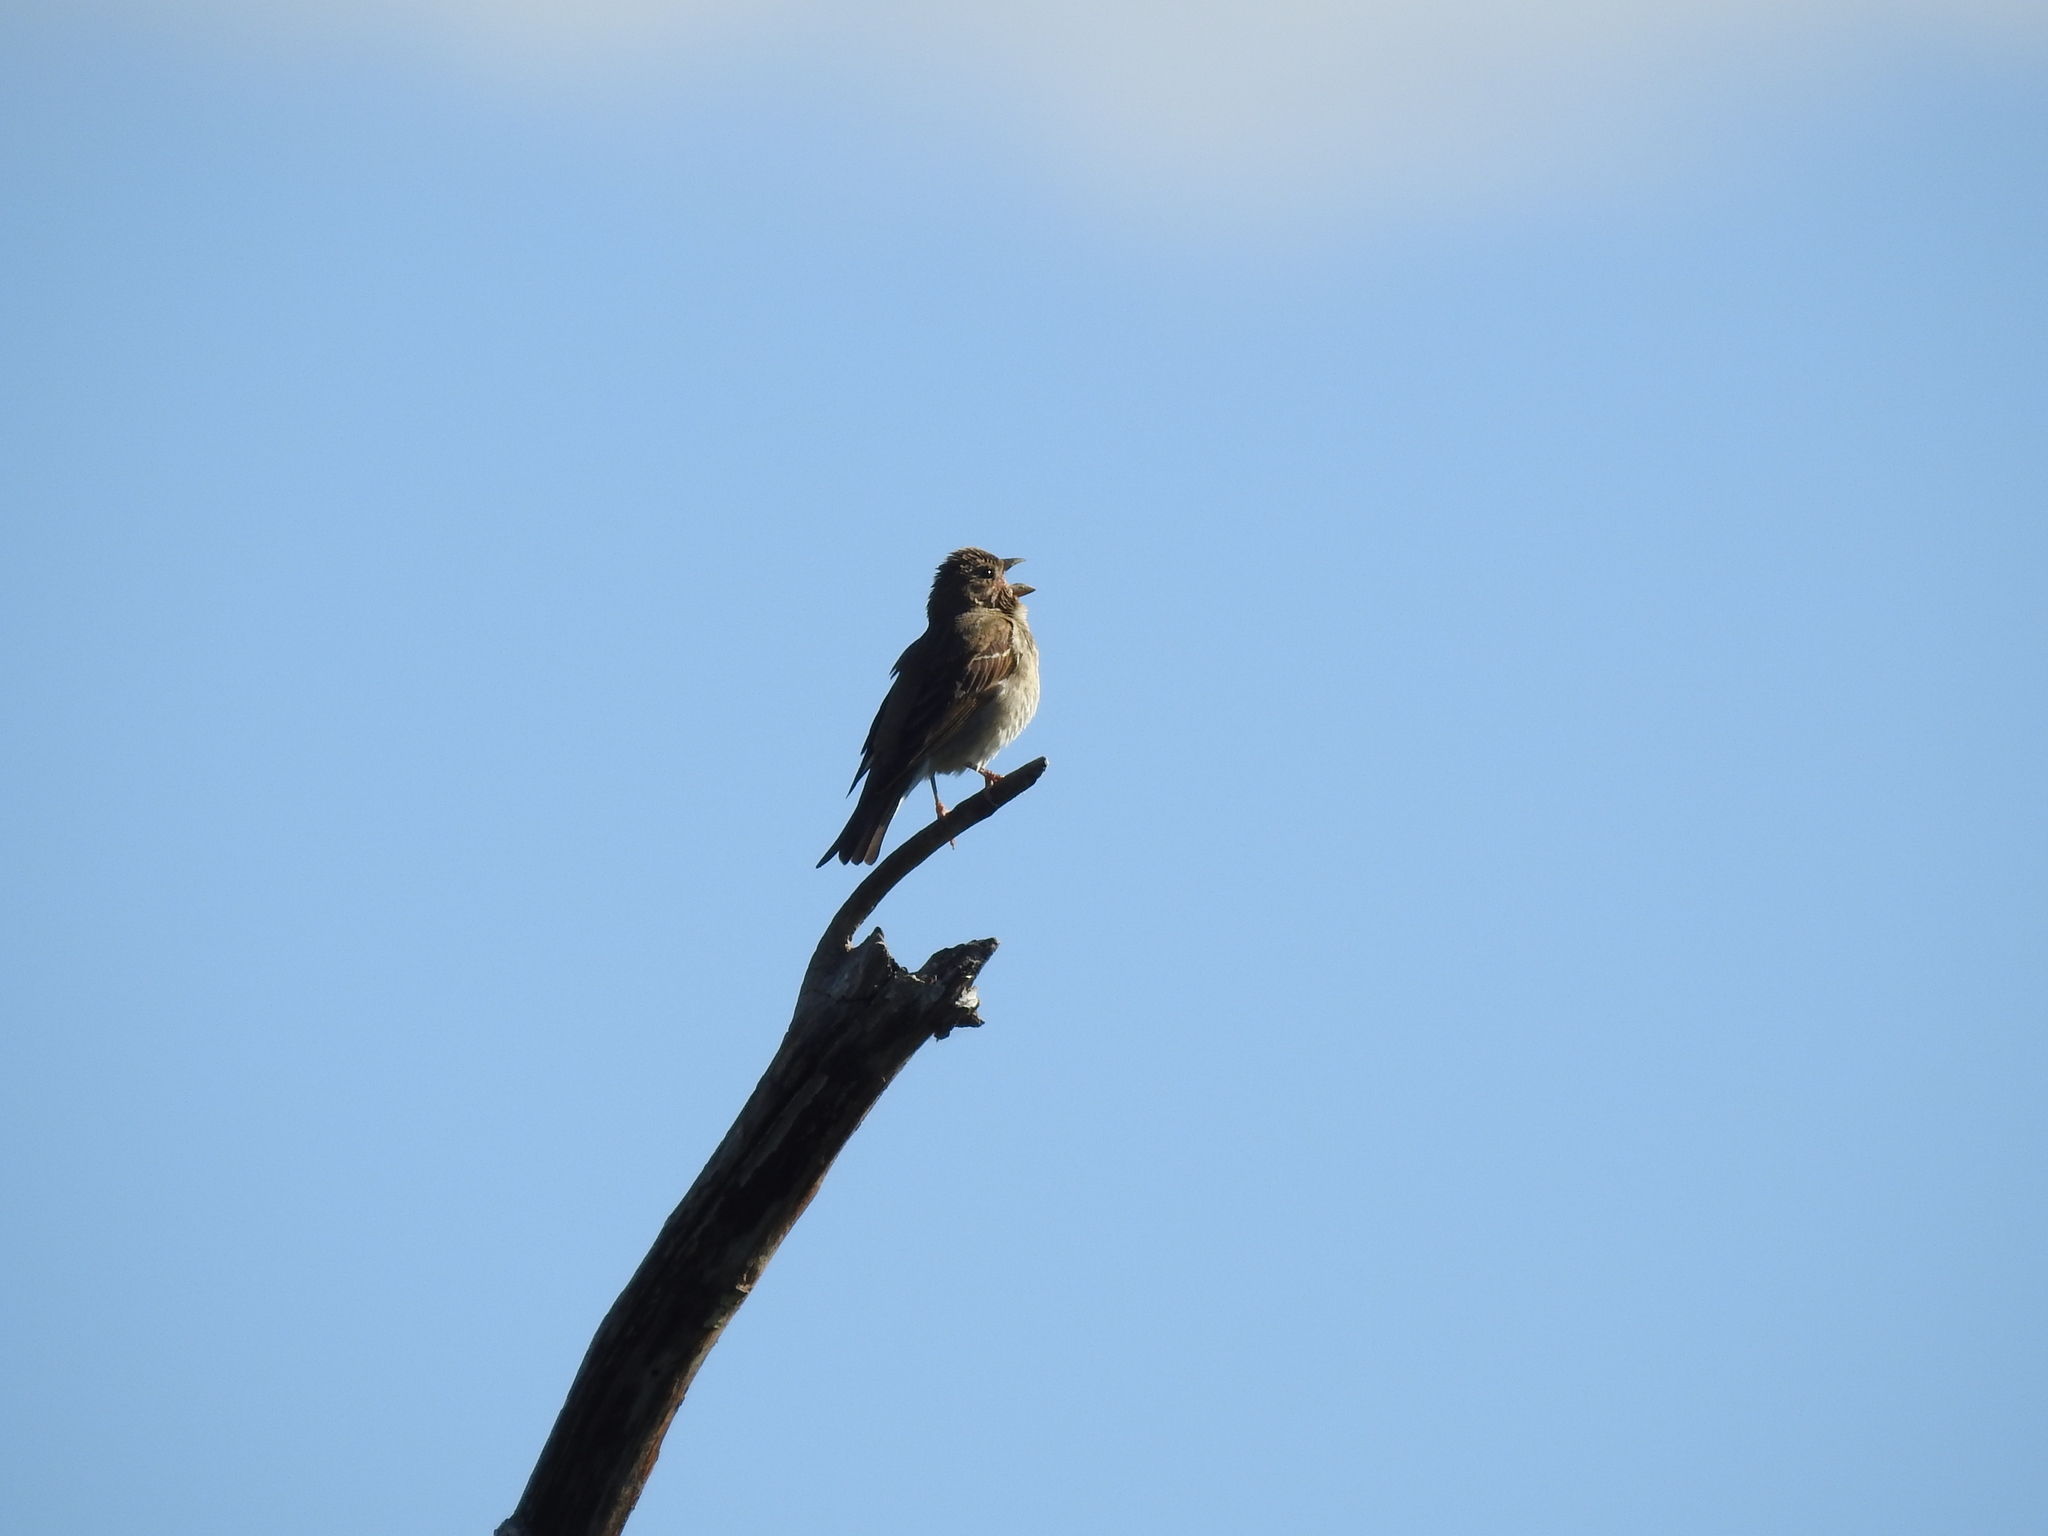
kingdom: Animalia
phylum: Chordata
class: Aves
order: Passeriformes
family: Fringillidae
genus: Carpodacus
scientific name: Carpodacus erythrinus
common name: Common rosefinch
